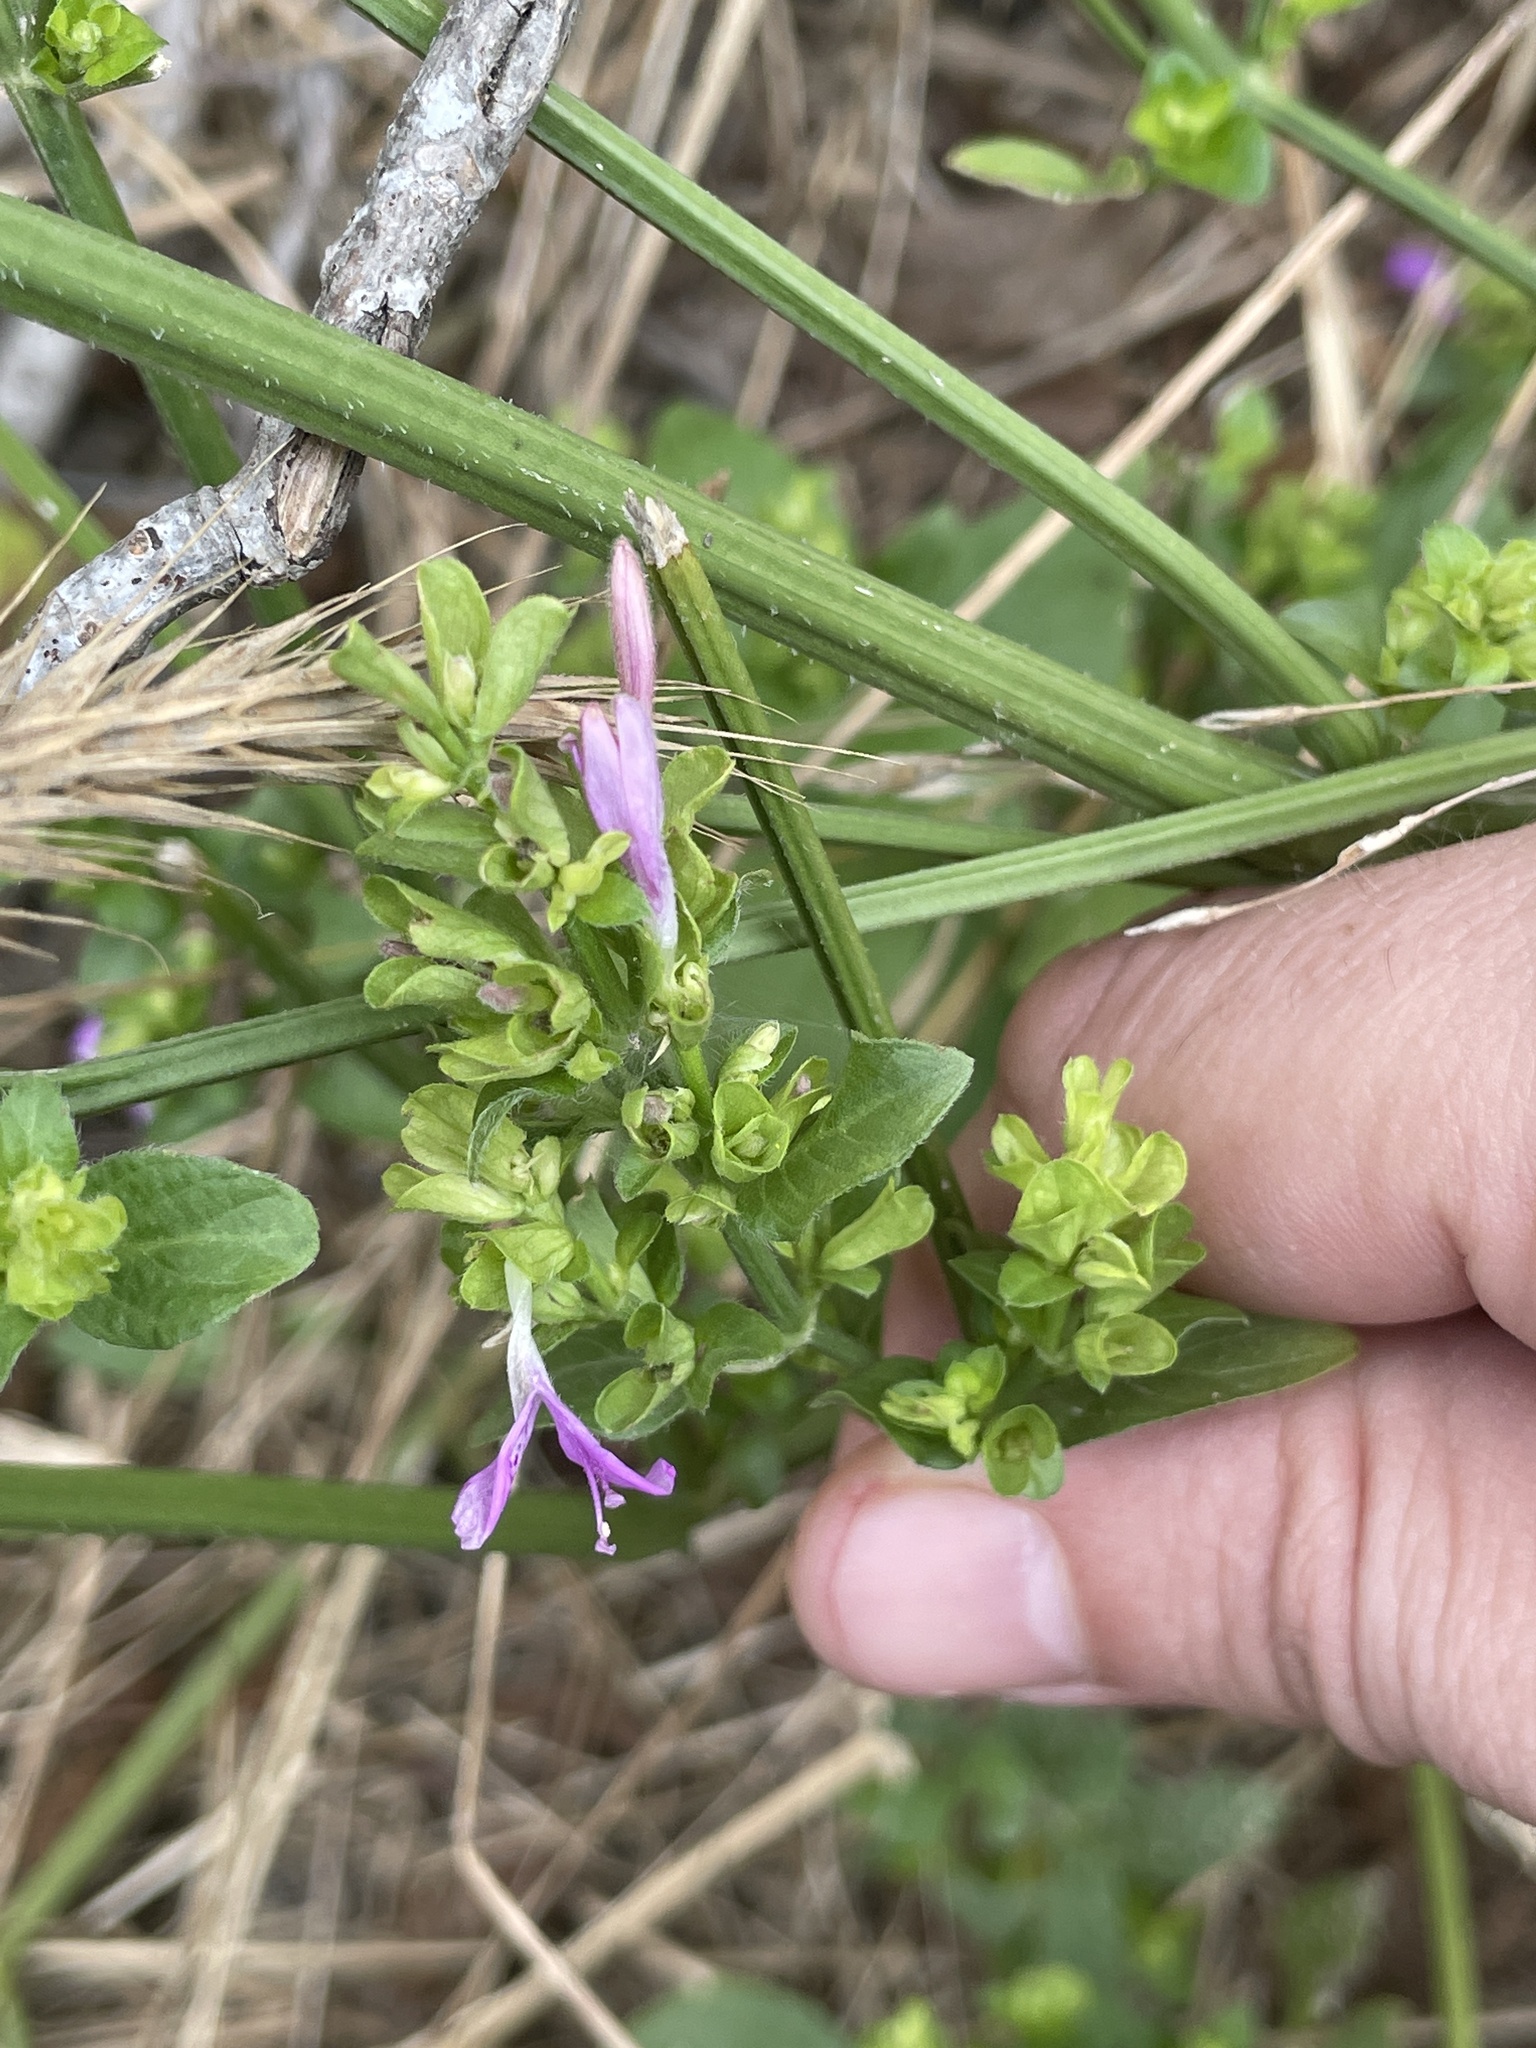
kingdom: Plantae
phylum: Tracheophyta
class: Magnoliopsida
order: Lamiales
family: Acanthaceae
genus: Dicliptera
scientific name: Dicliptera brachiata
